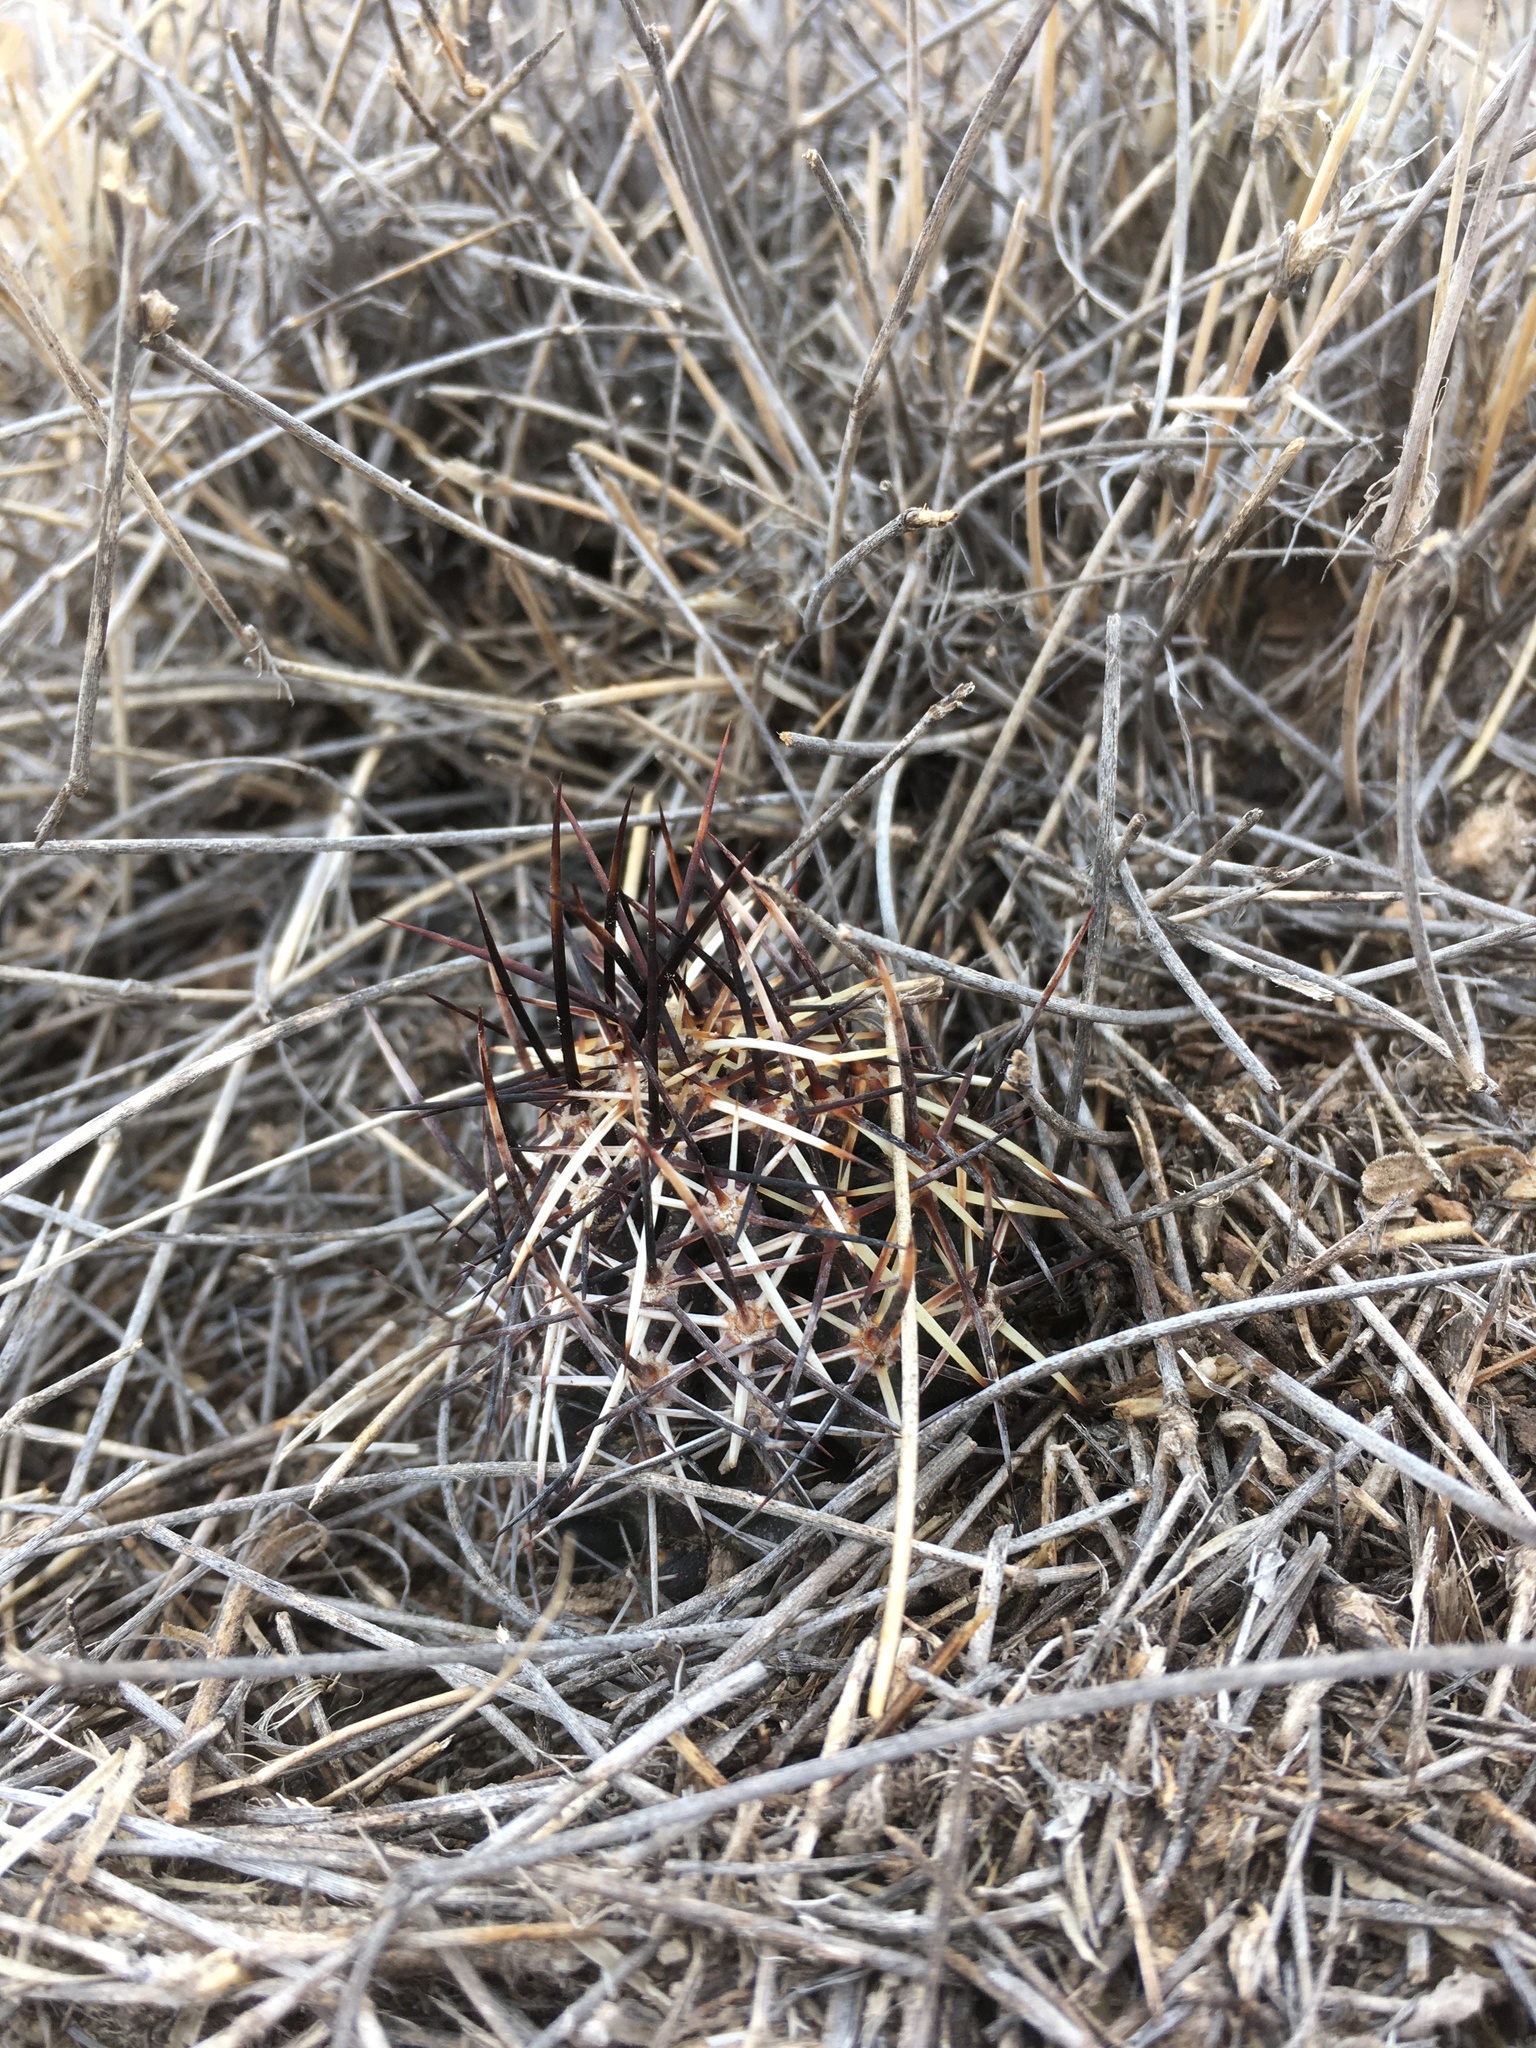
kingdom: Plantae
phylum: Tracheophyta
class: Magnoliopsida
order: Caryophyllales
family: Cactaceae
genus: Echinocereus
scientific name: Echinocereus fendleri
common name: Fendler's hedgehog cactus
